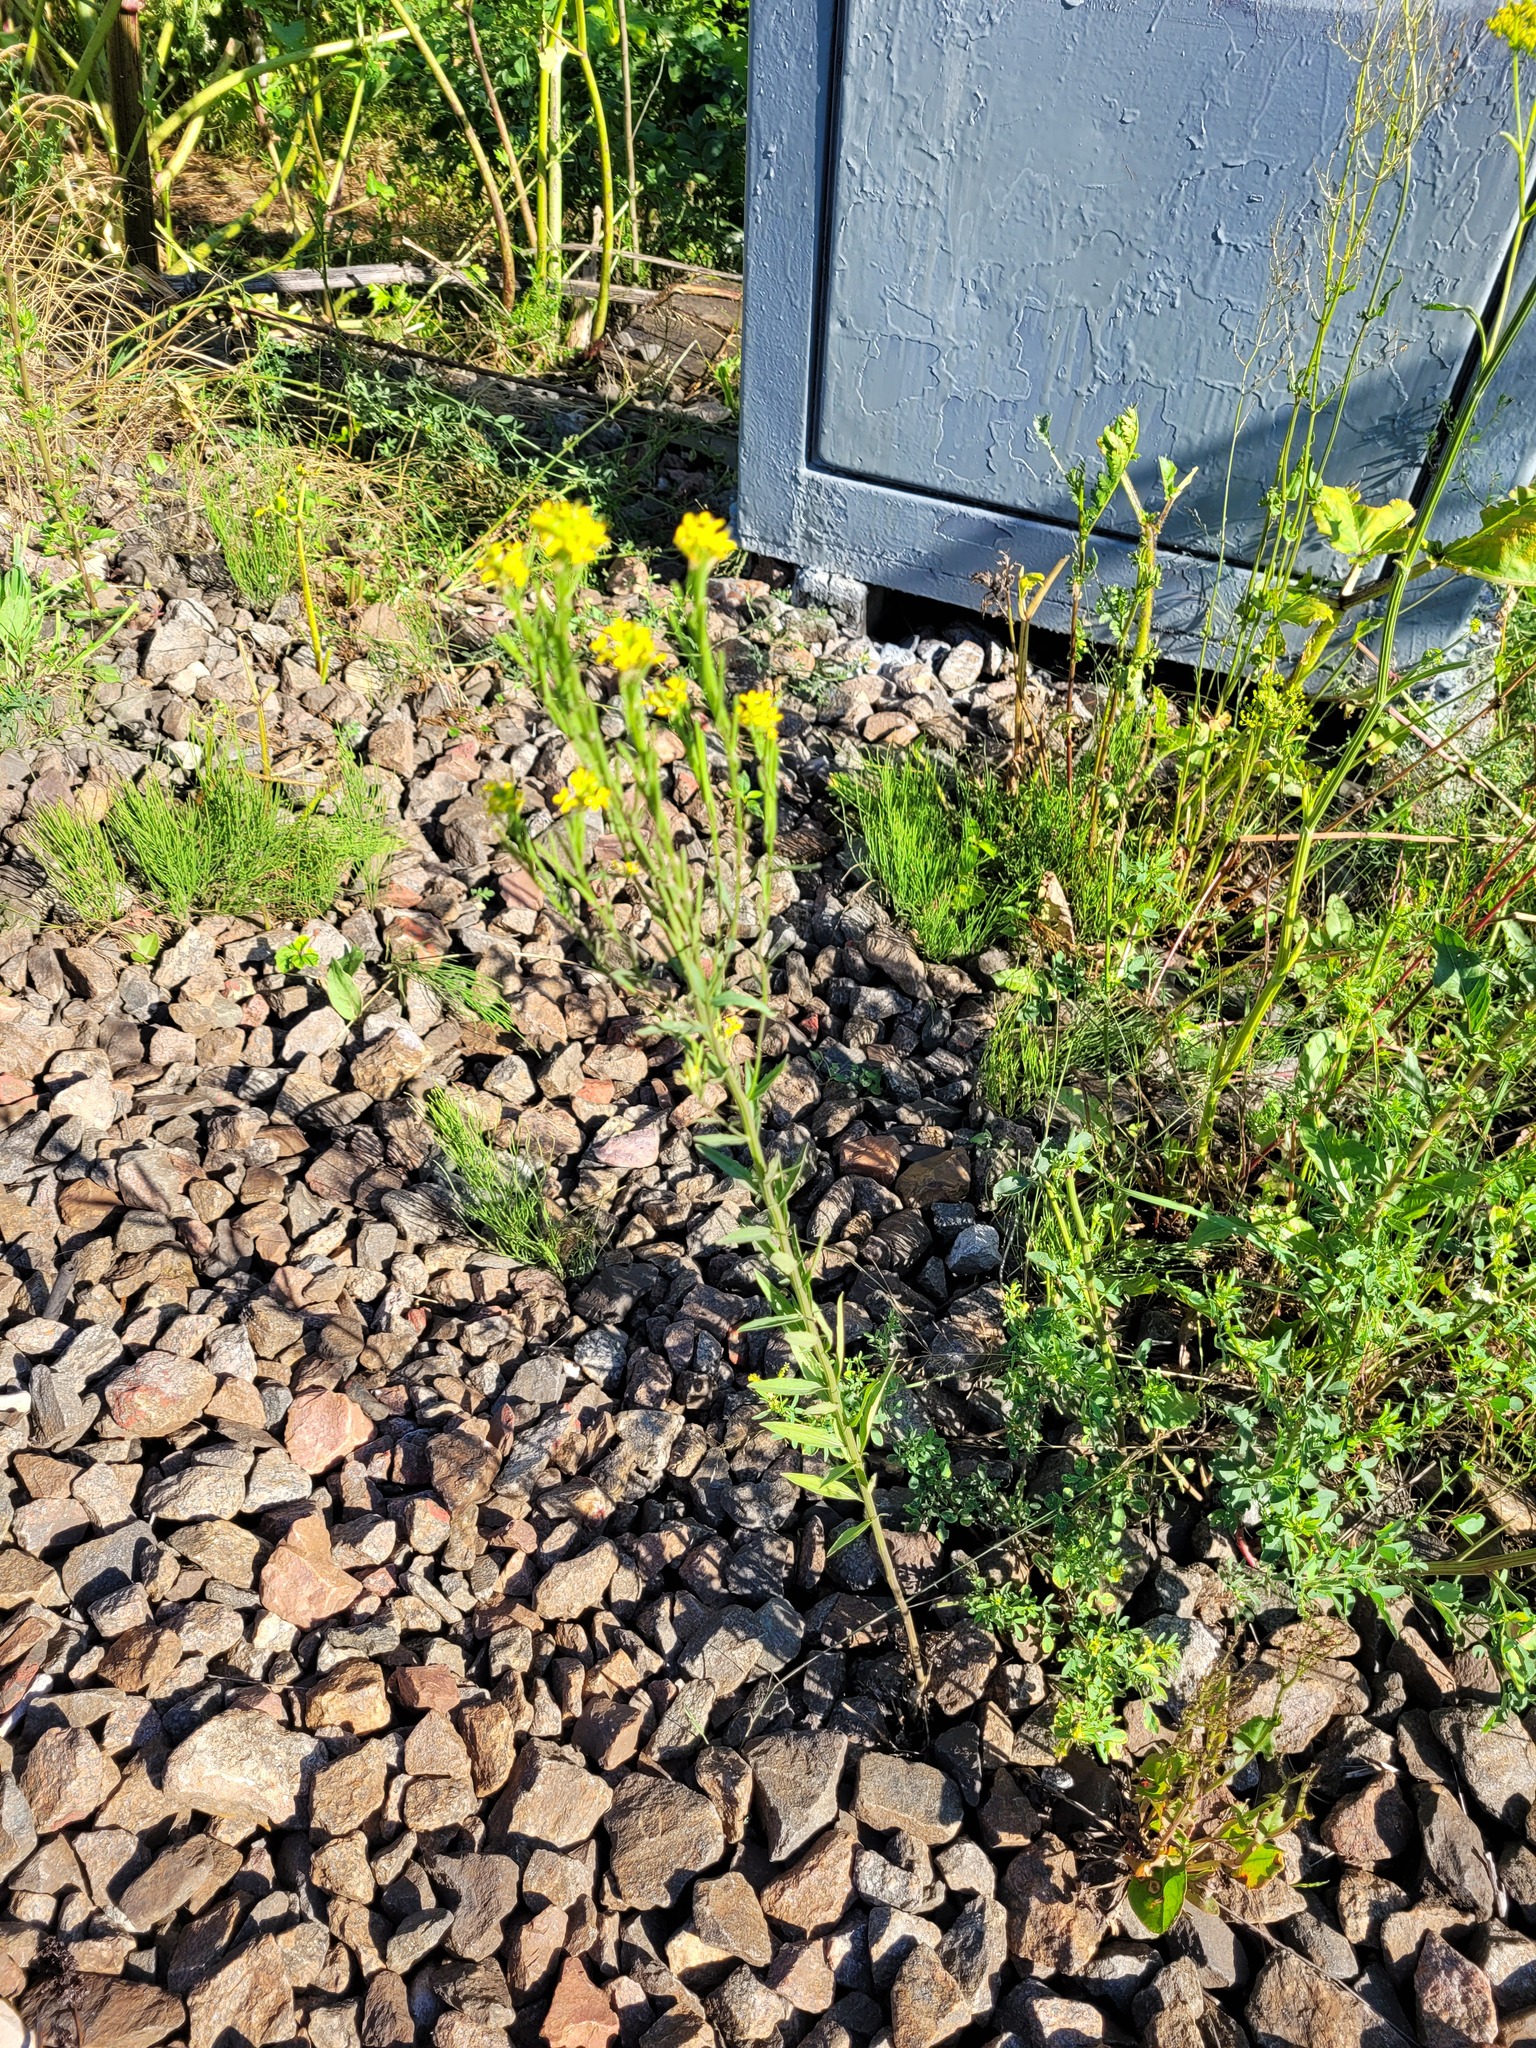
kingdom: Plantae
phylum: Tracheophyta
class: Magnoliopsida
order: Brassicales
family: Brassicaceae
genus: Erysimum
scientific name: Erysimum hieraciifolium
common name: European wallflower
